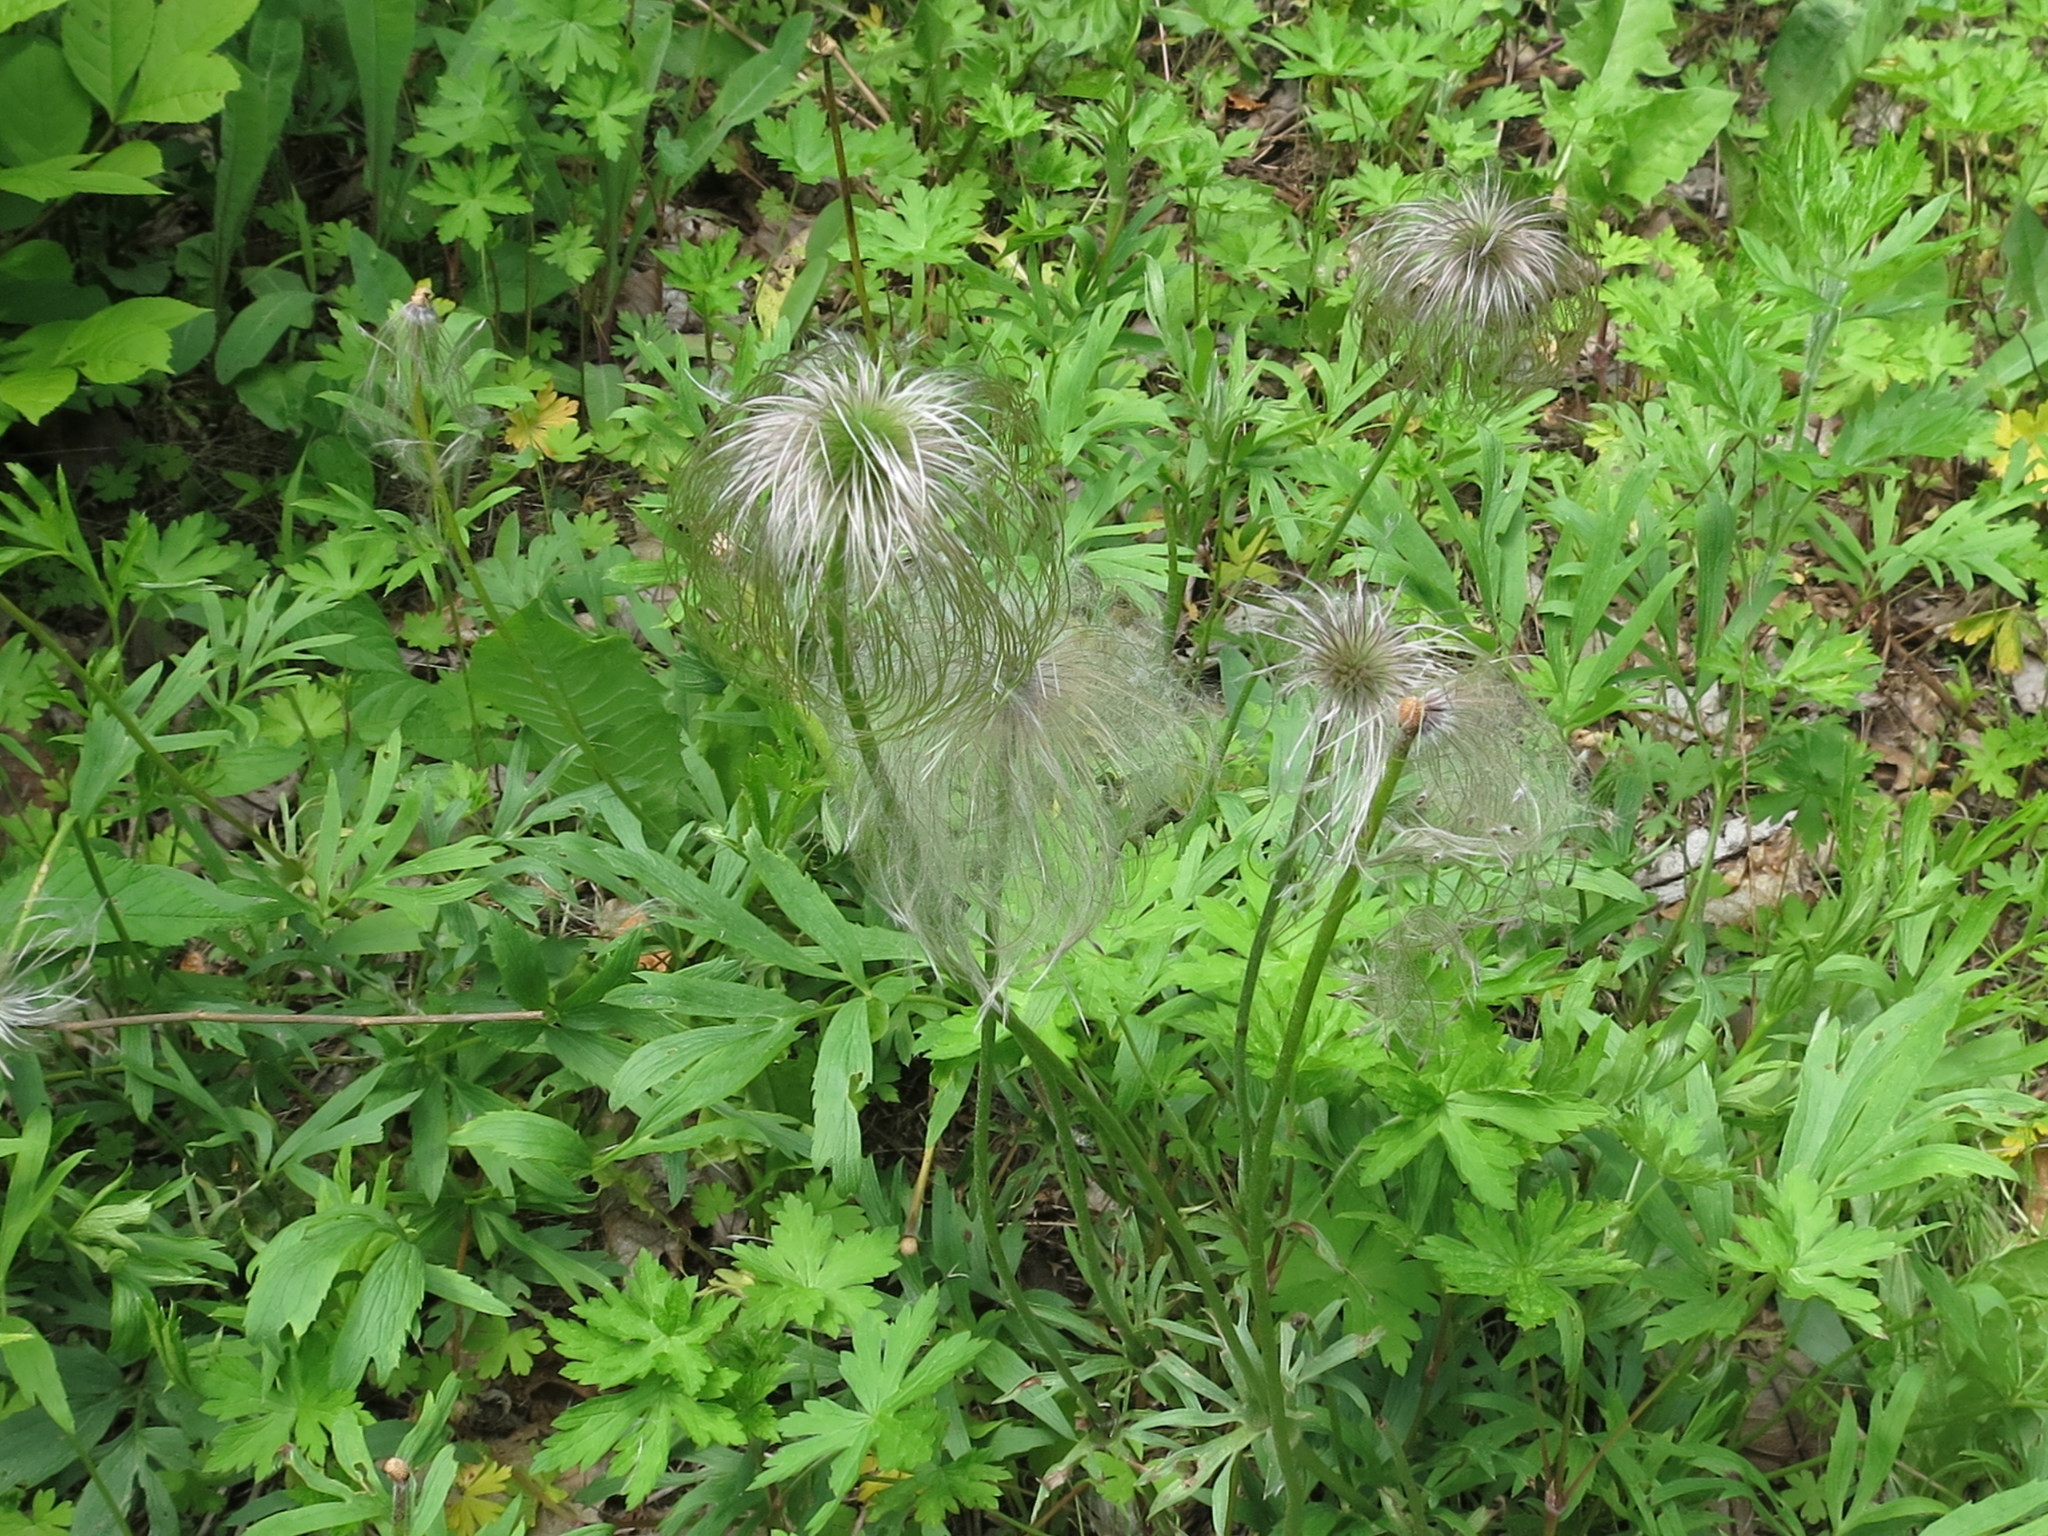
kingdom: Plantae
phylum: Tracheophyta
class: Magnoliopsida
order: Ranunculales
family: Ranunculaceae
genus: Pulsatilla
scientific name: Pulsatilla dahurica
